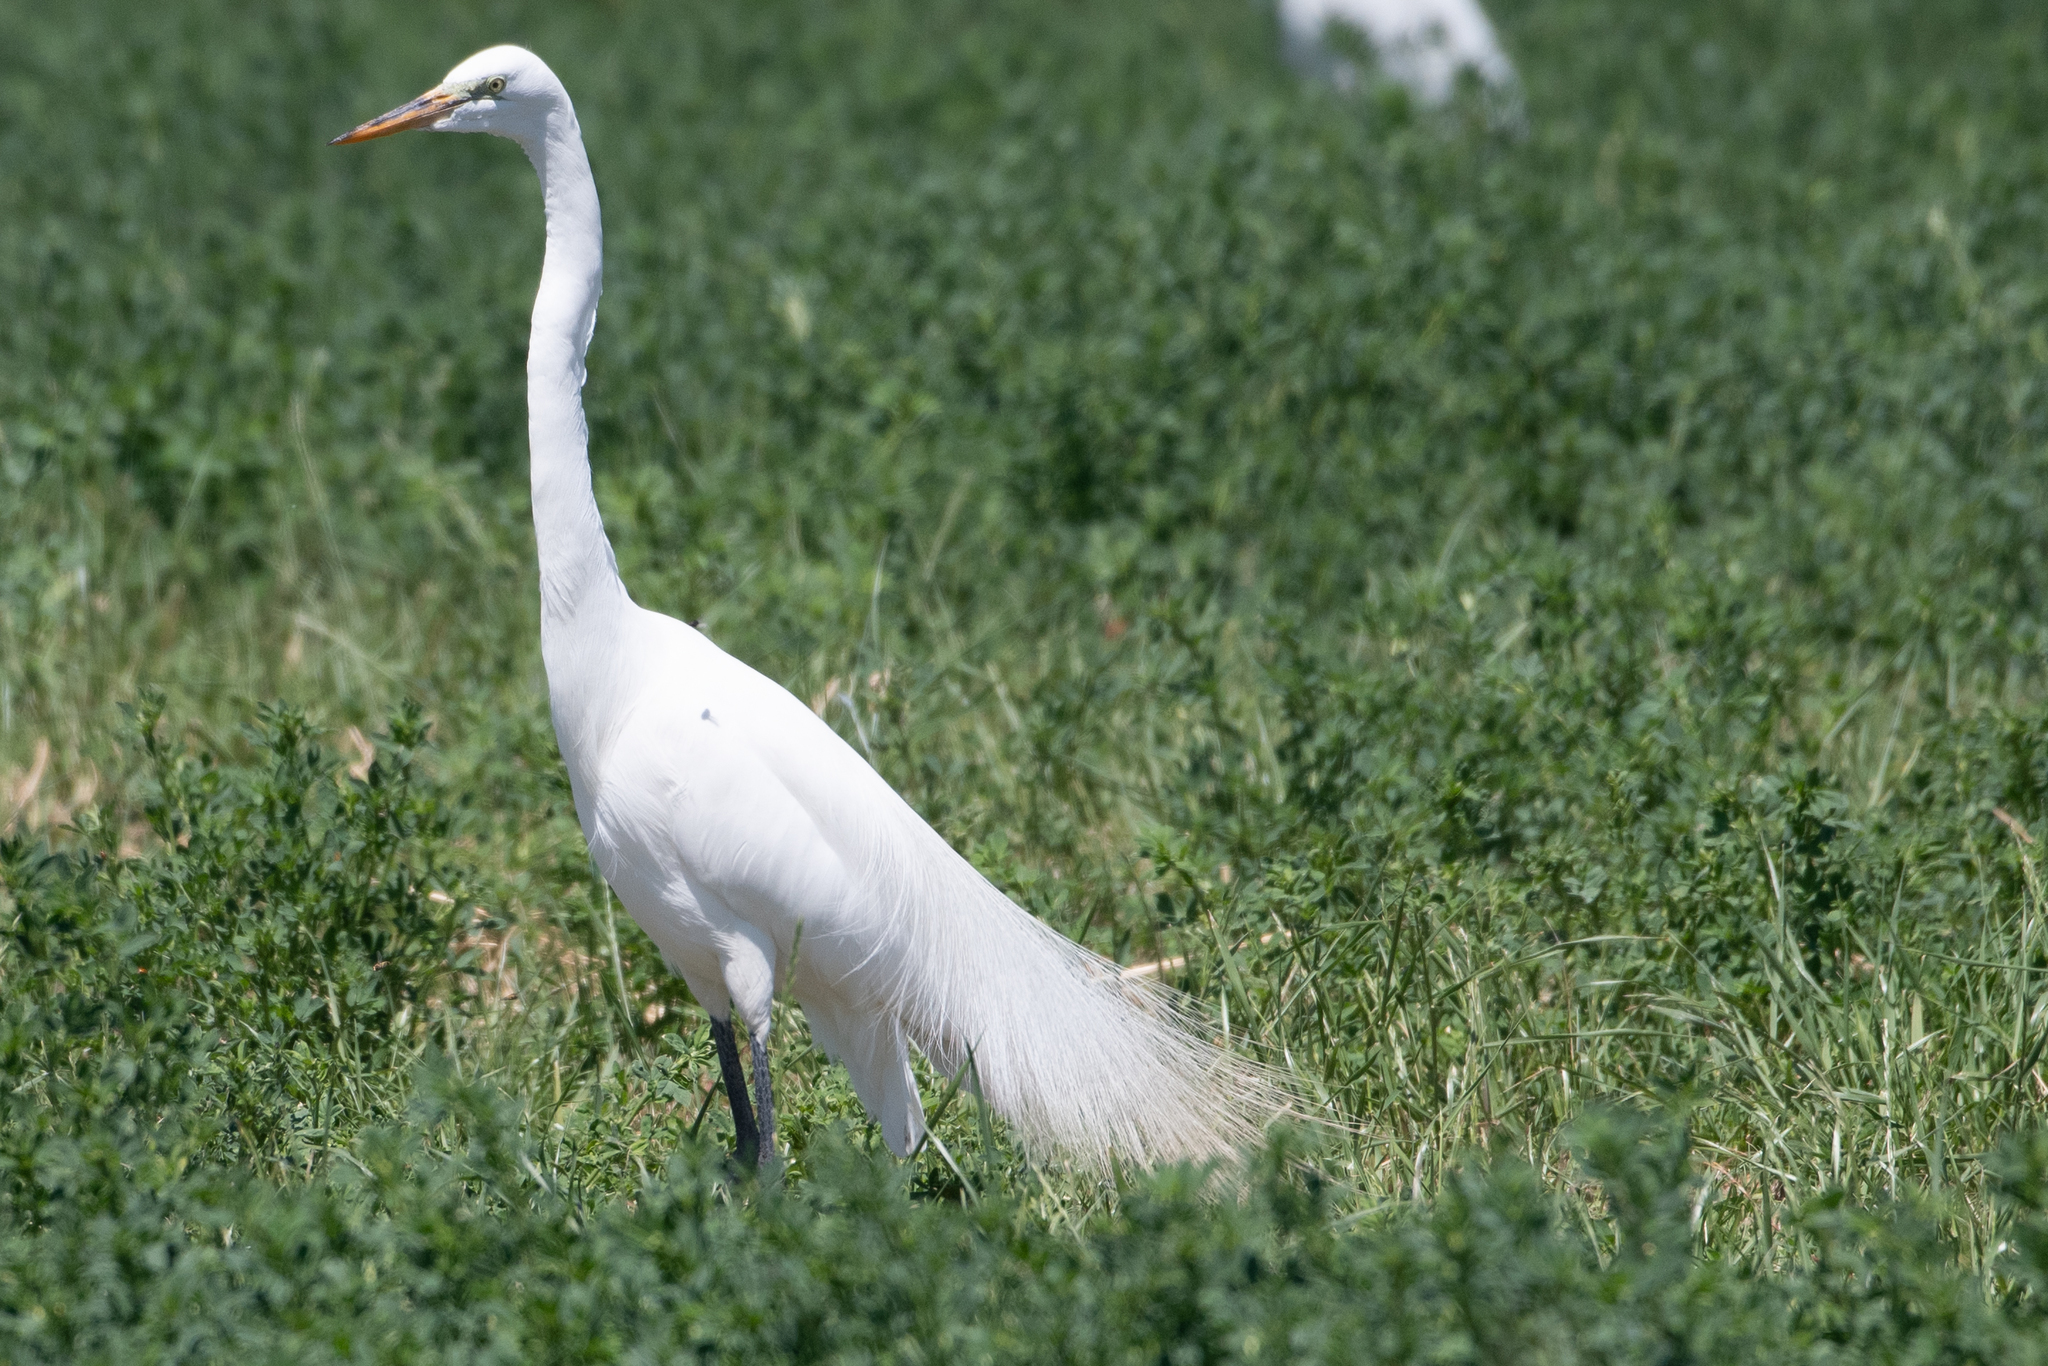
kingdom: Animalia
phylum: Chordata
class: Aves
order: Pelecaniformes
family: Ardeidae
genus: Ardea
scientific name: Ardea alba
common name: Great egret
